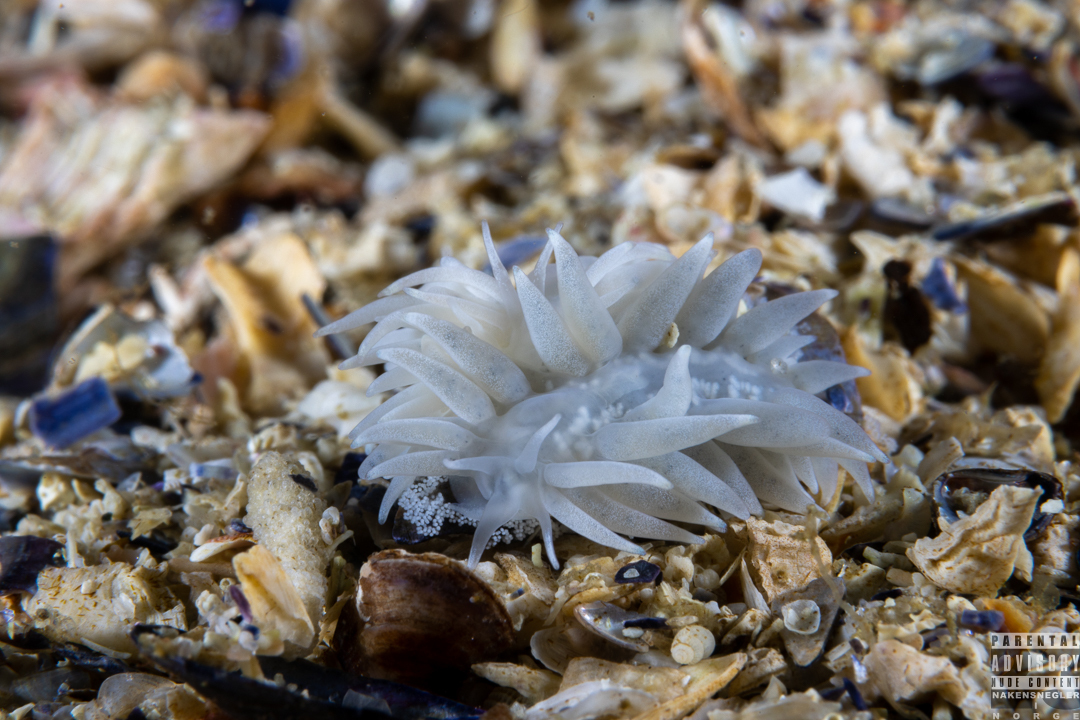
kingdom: Animalia
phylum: Mollusca
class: Gastropoda
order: Nudibranchia
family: Calmidae
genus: Calma
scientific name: Calma glaucoides
